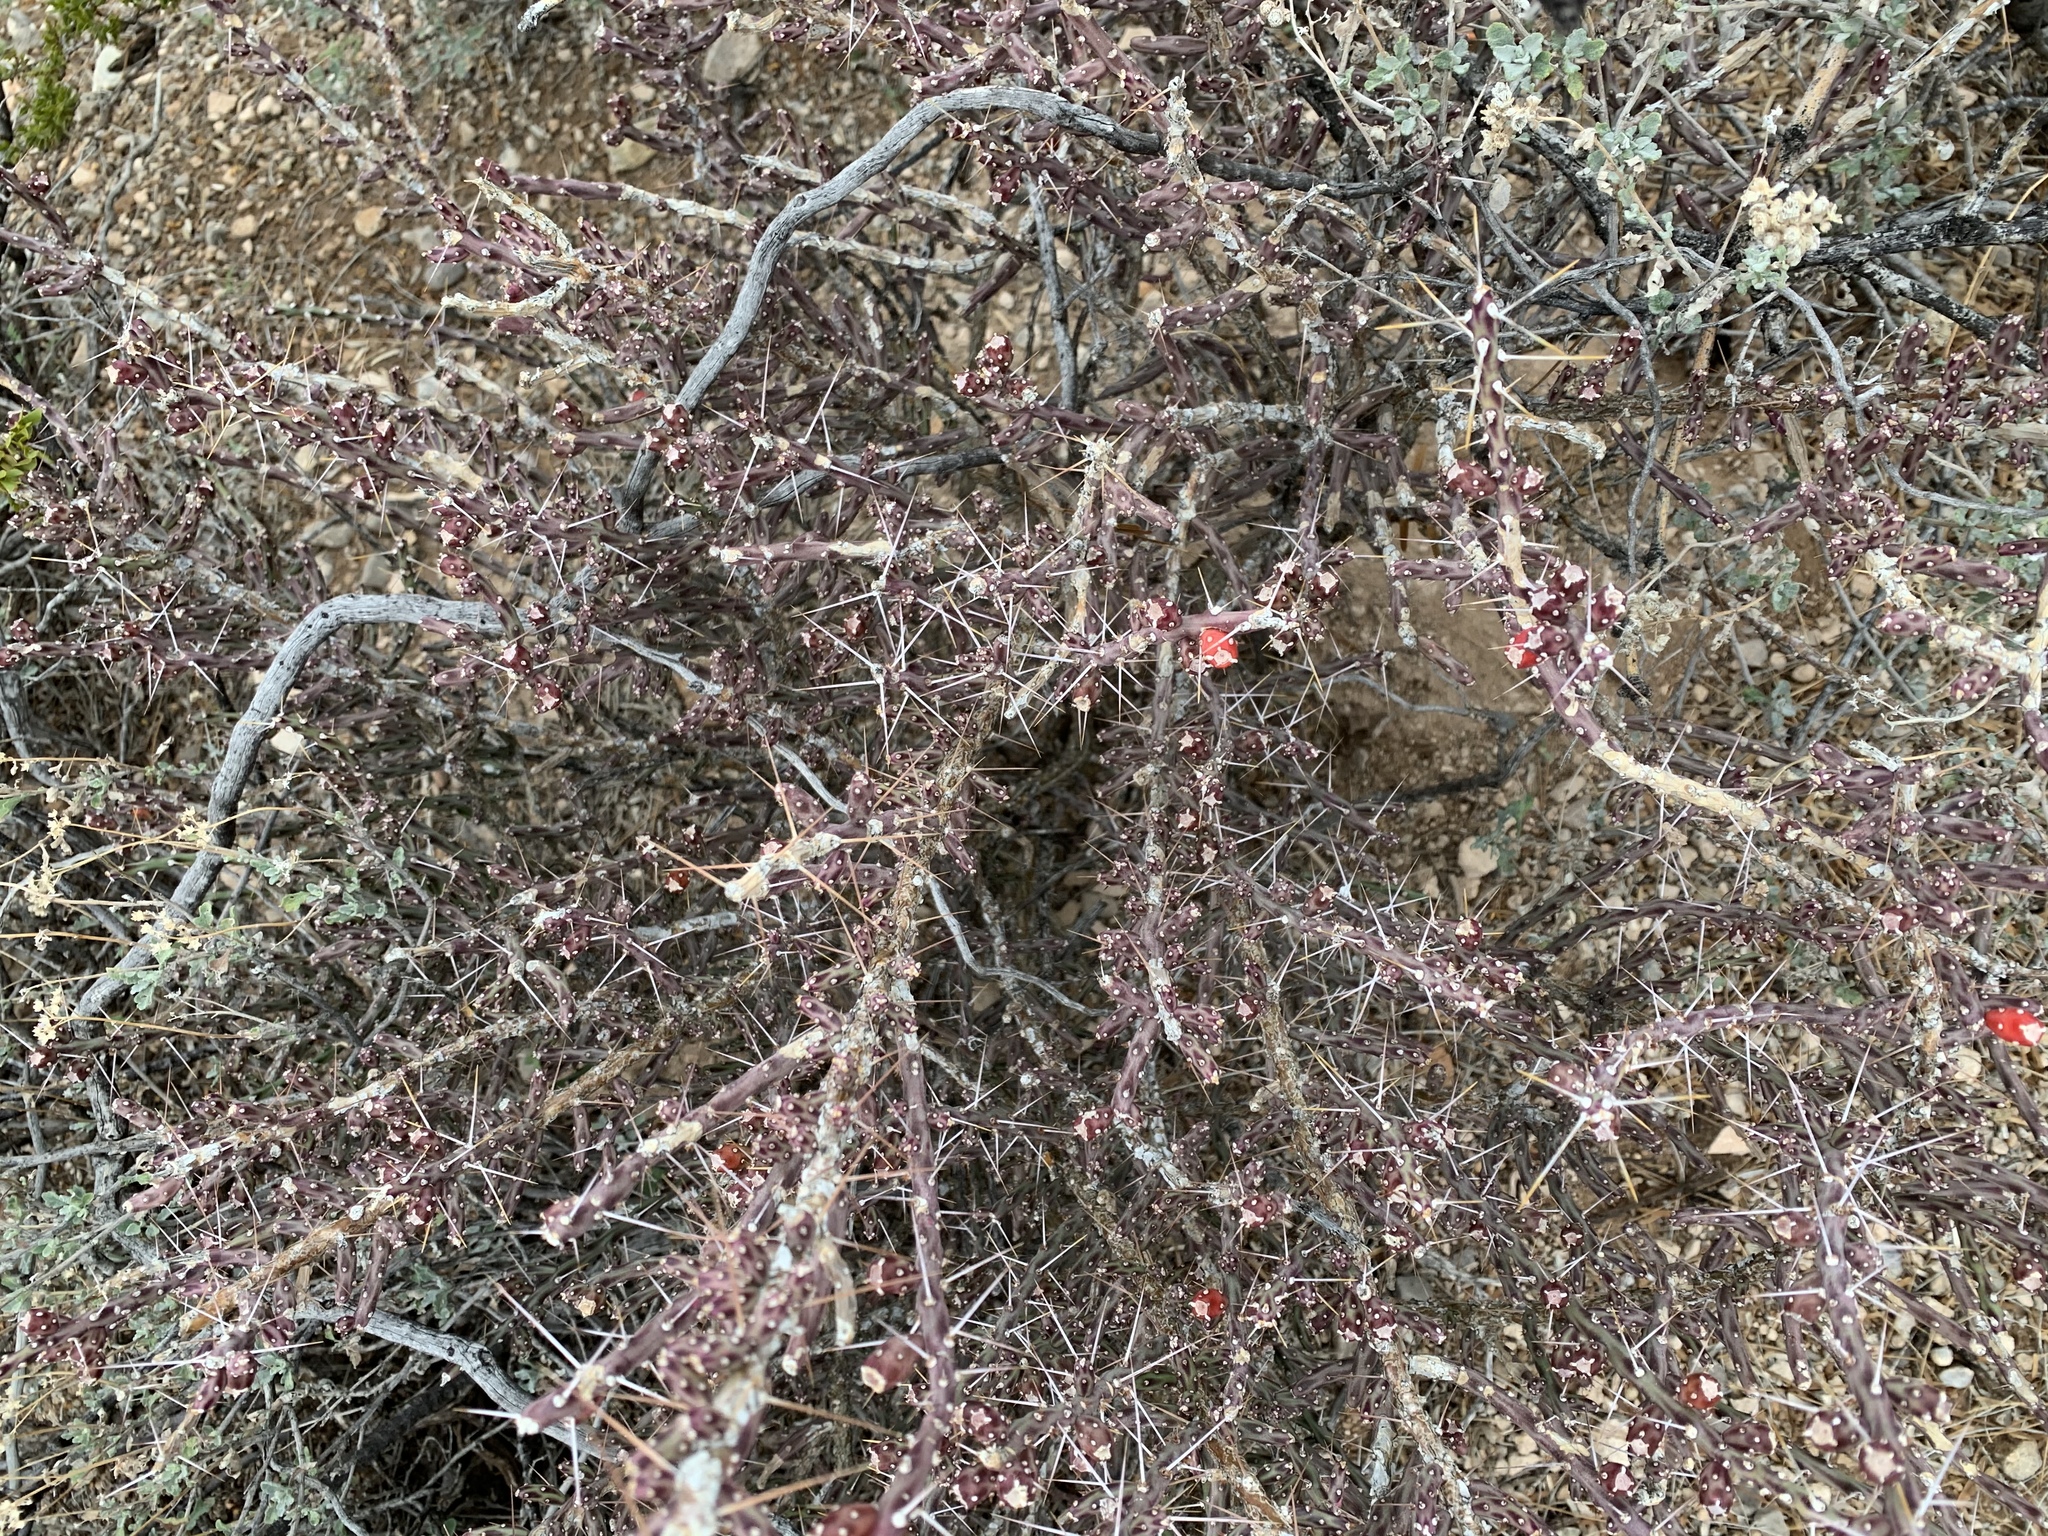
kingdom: Plantae
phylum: Tracheophyta
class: Magnoliopsida
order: Caryophyllales
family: Cactaceae
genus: Cylindropuntia
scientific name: Cylindropuntia leptocaulis
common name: Christmas cactus
